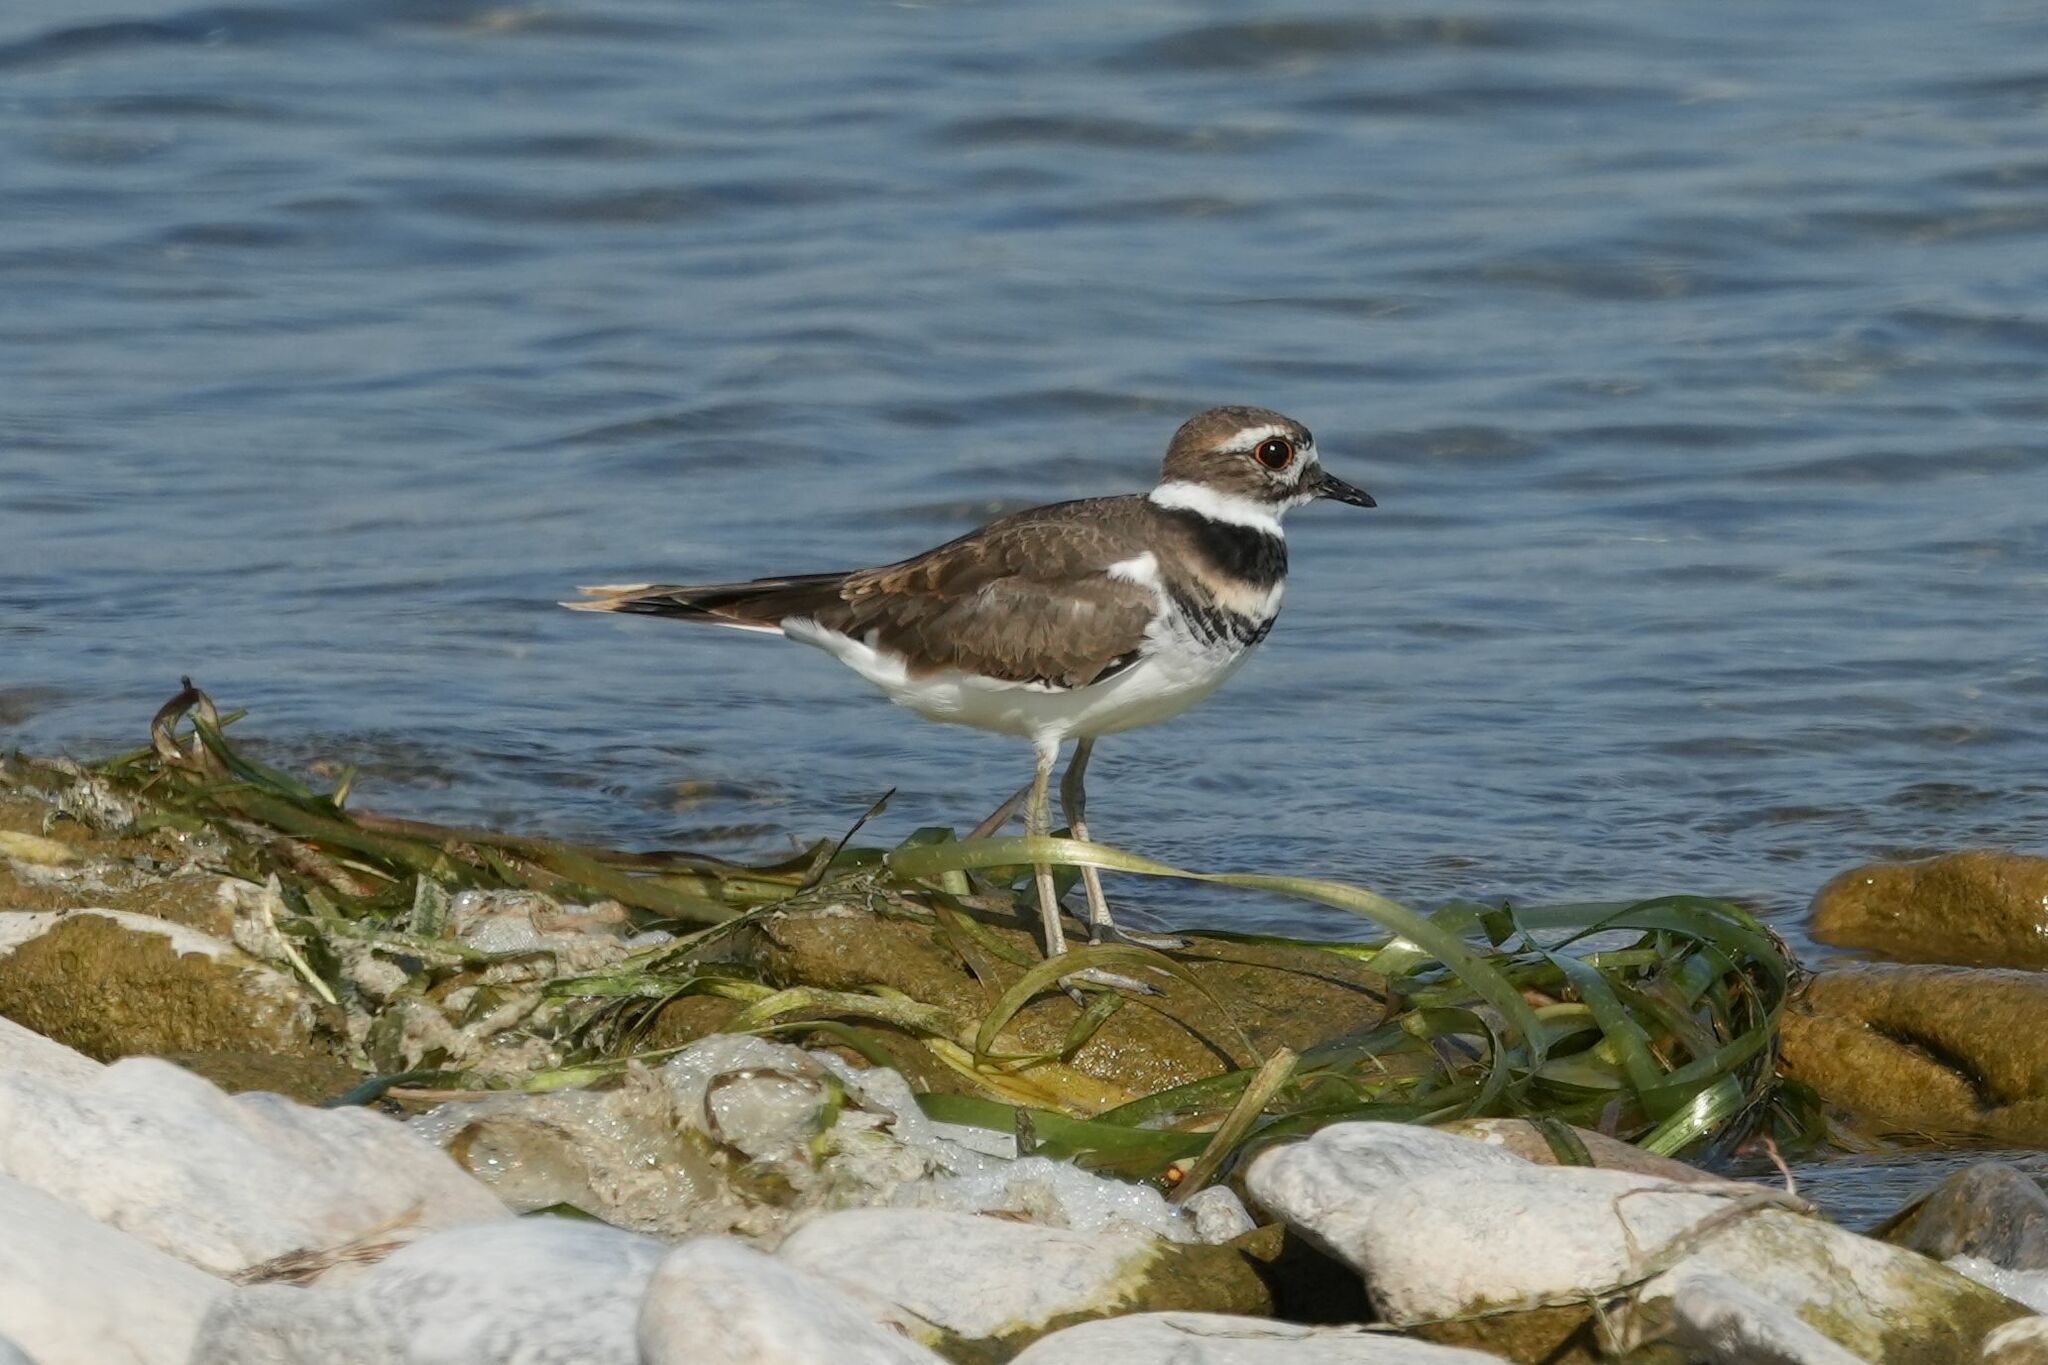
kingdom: Animalia
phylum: Chordata
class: Aves
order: Charadriiformes
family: Charadriidae
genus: Charadrius
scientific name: Charadrius vociferus
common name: Killdeer
